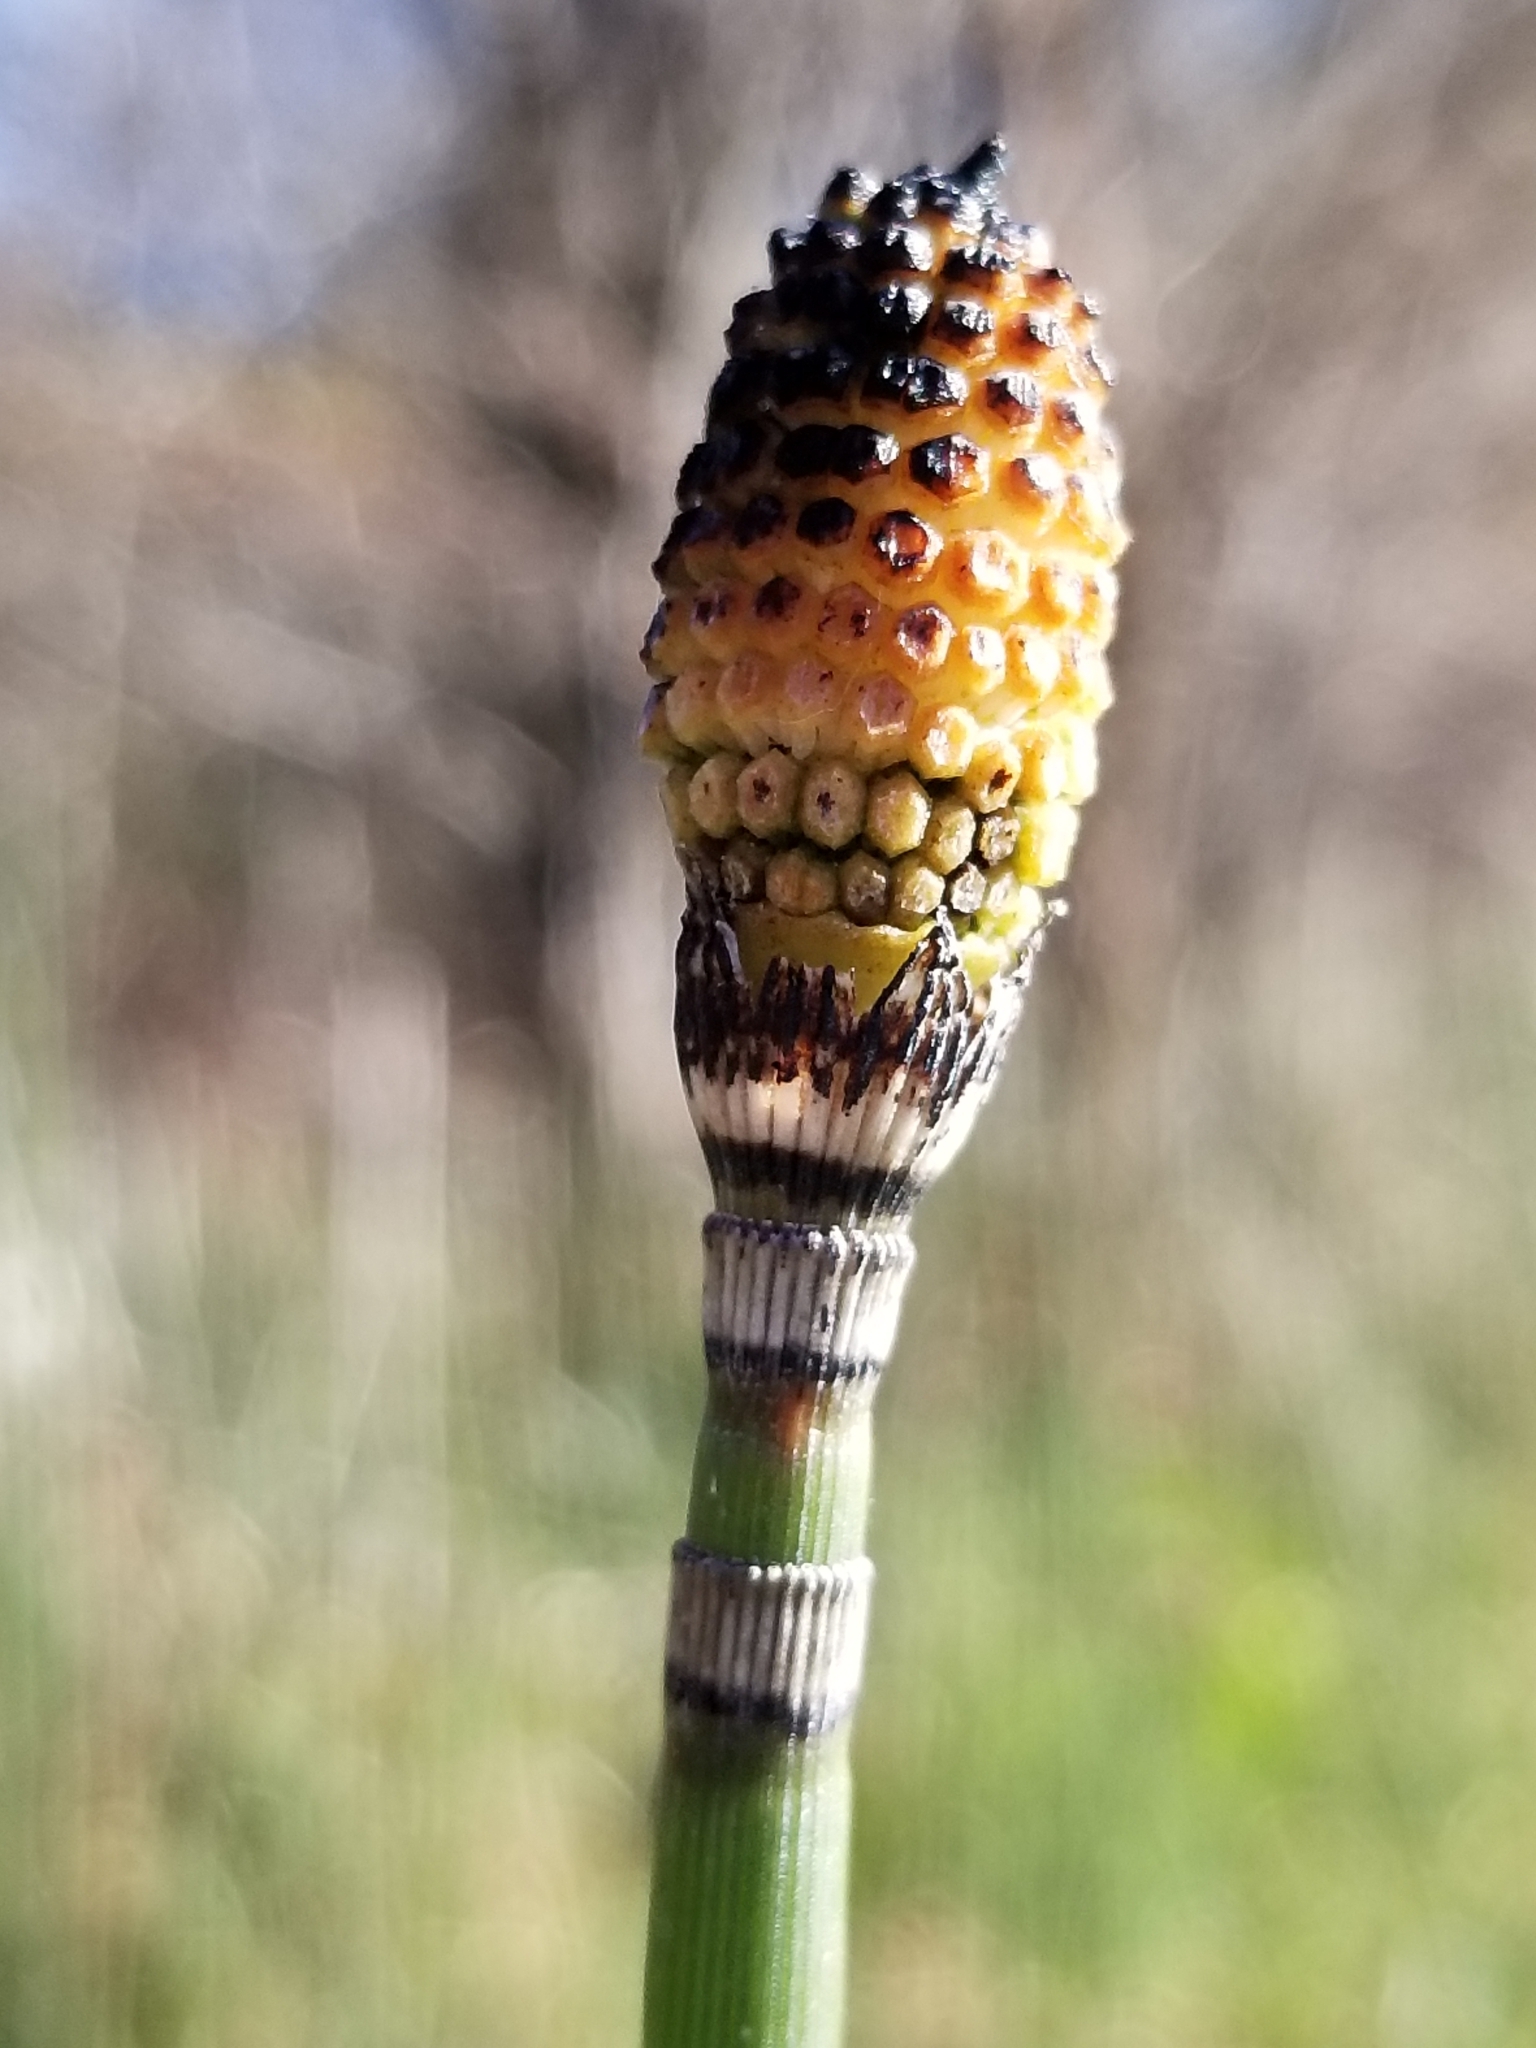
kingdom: Plantae
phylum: Tracheophyta
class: Polypodiopsida
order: Equisetales
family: Equisetaceae
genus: Equisetum
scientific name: Equisetum hyemale
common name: Rough horsetail
